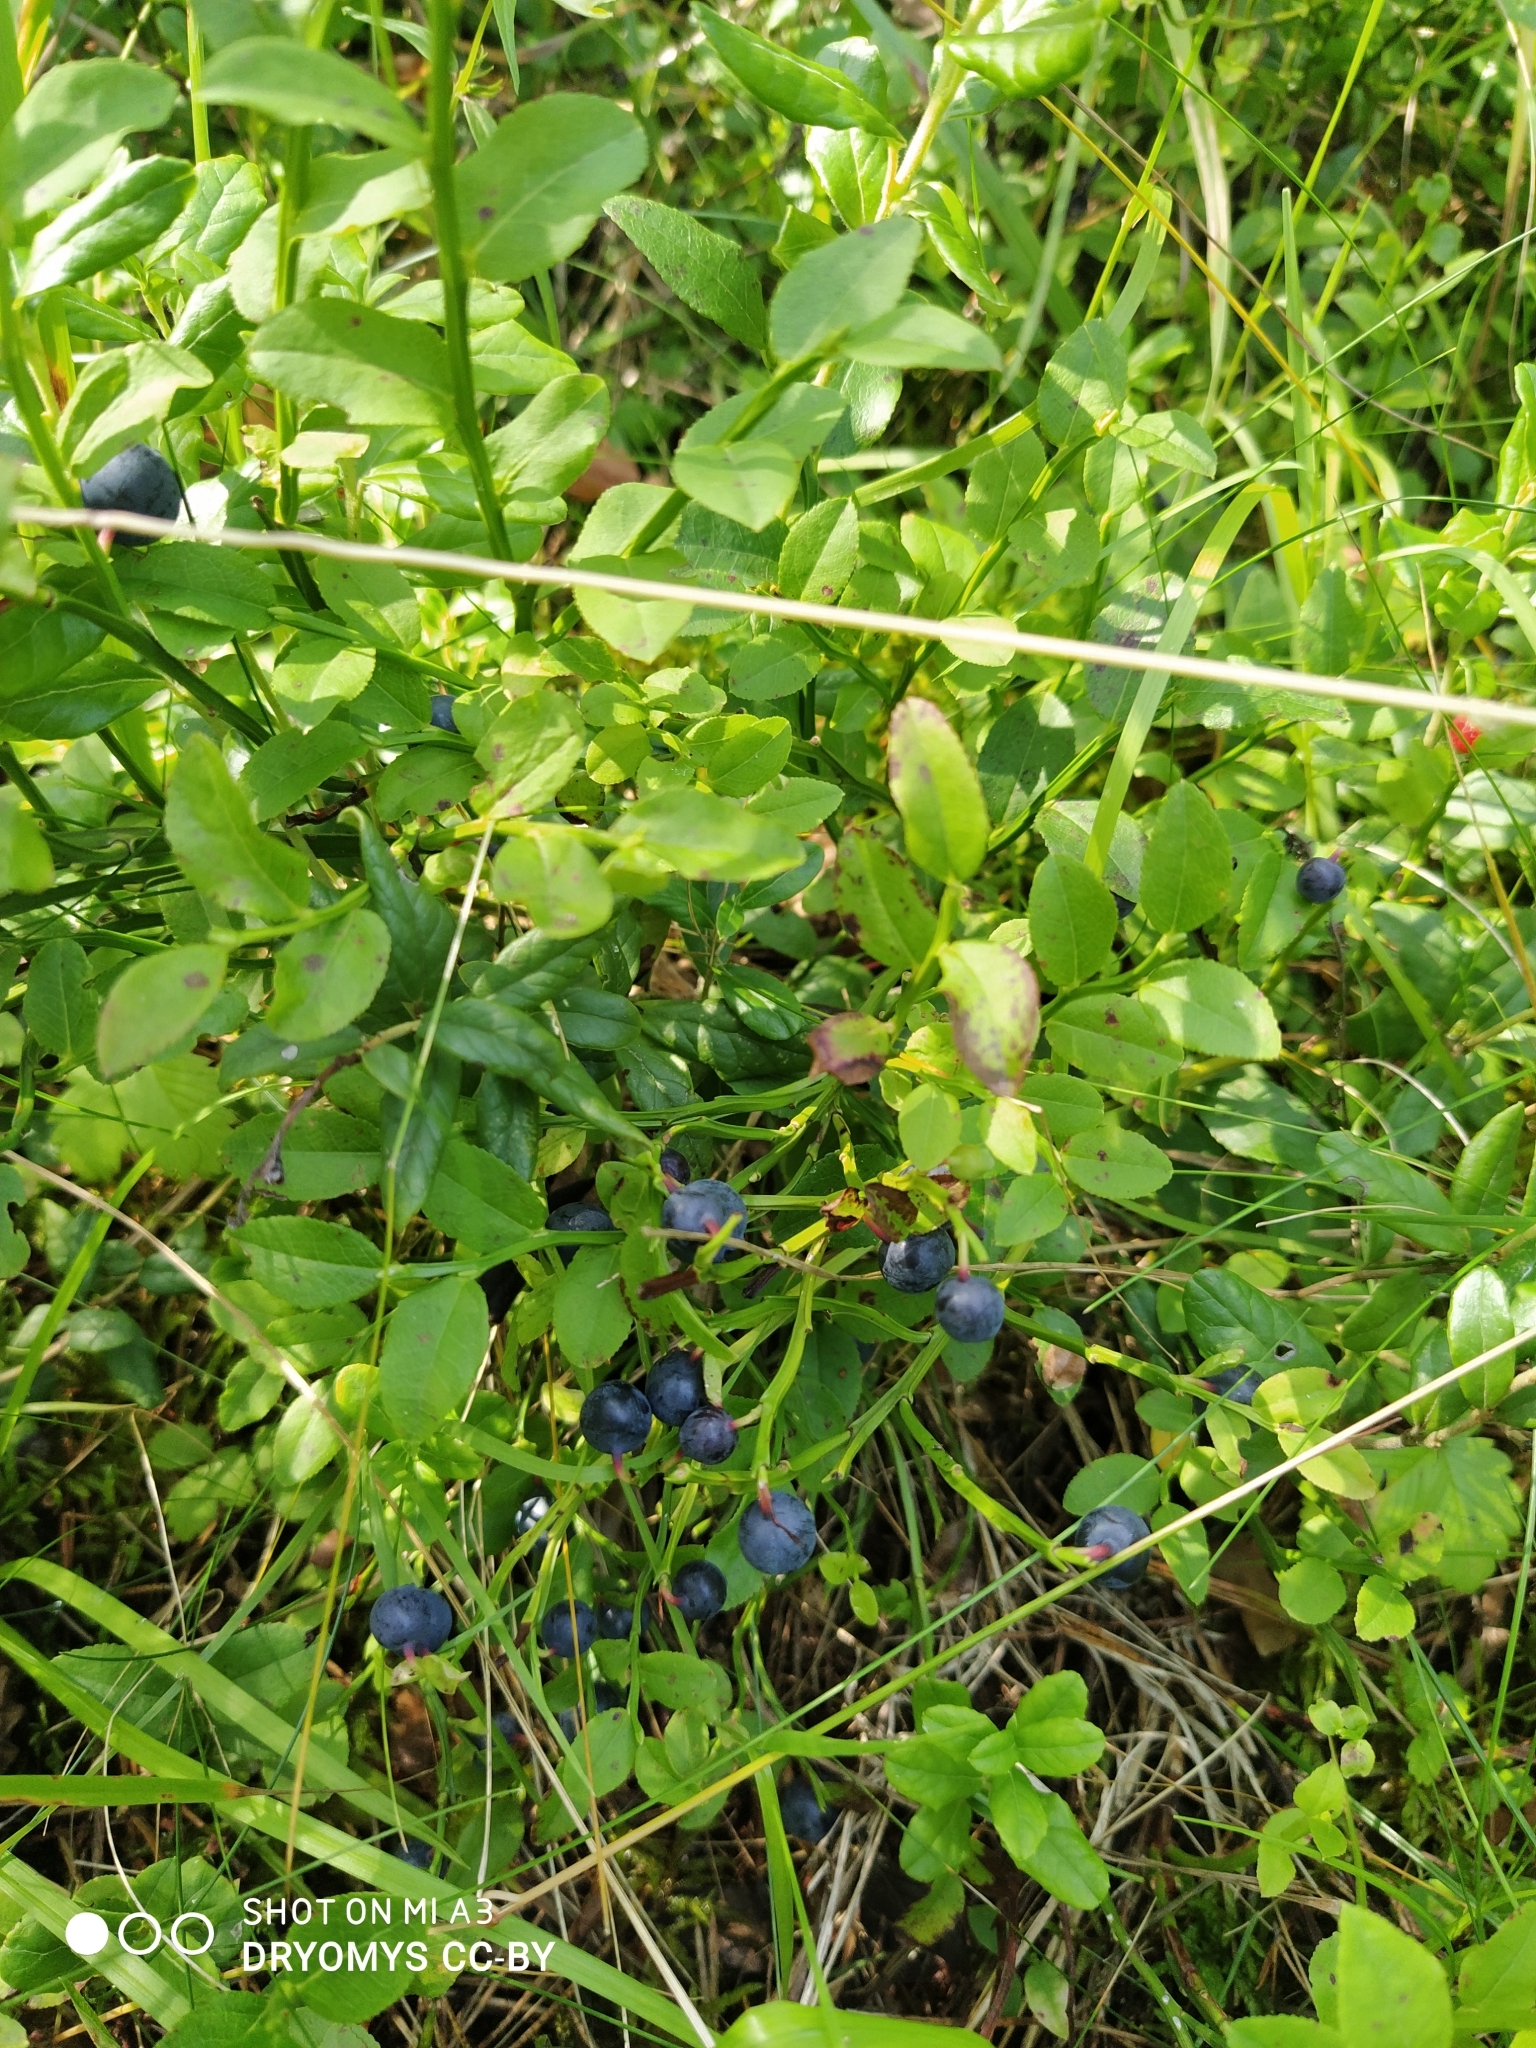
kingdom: Plantae
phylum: Tracheophyta
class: Magnoliopsida
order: Ericales
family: Ericaceae
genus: Vaccinium
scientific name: Vaccinium myrtillus
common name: Bilberry
